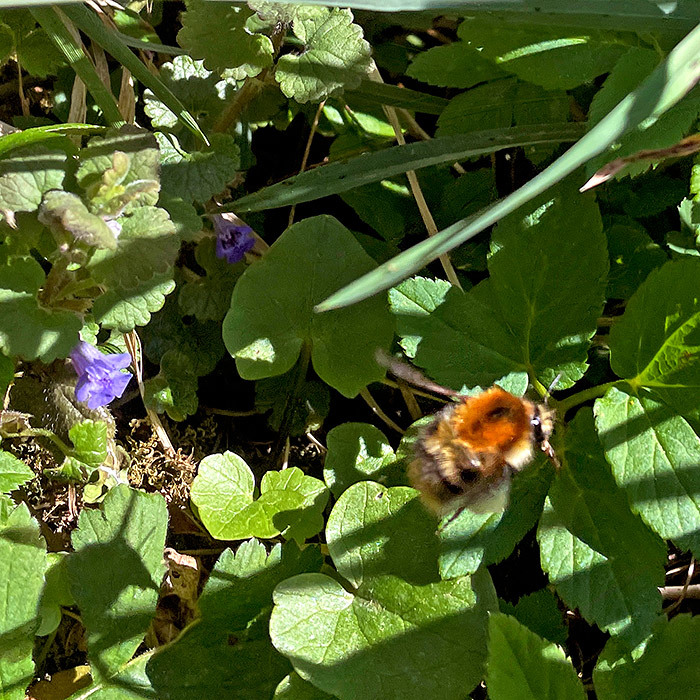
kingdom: Animalia
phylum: Arthropoda
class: Insecta
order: Hymenoptera
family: Apidae
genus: Bombus
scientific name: Bombus pascuorum
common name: Common carder bee
